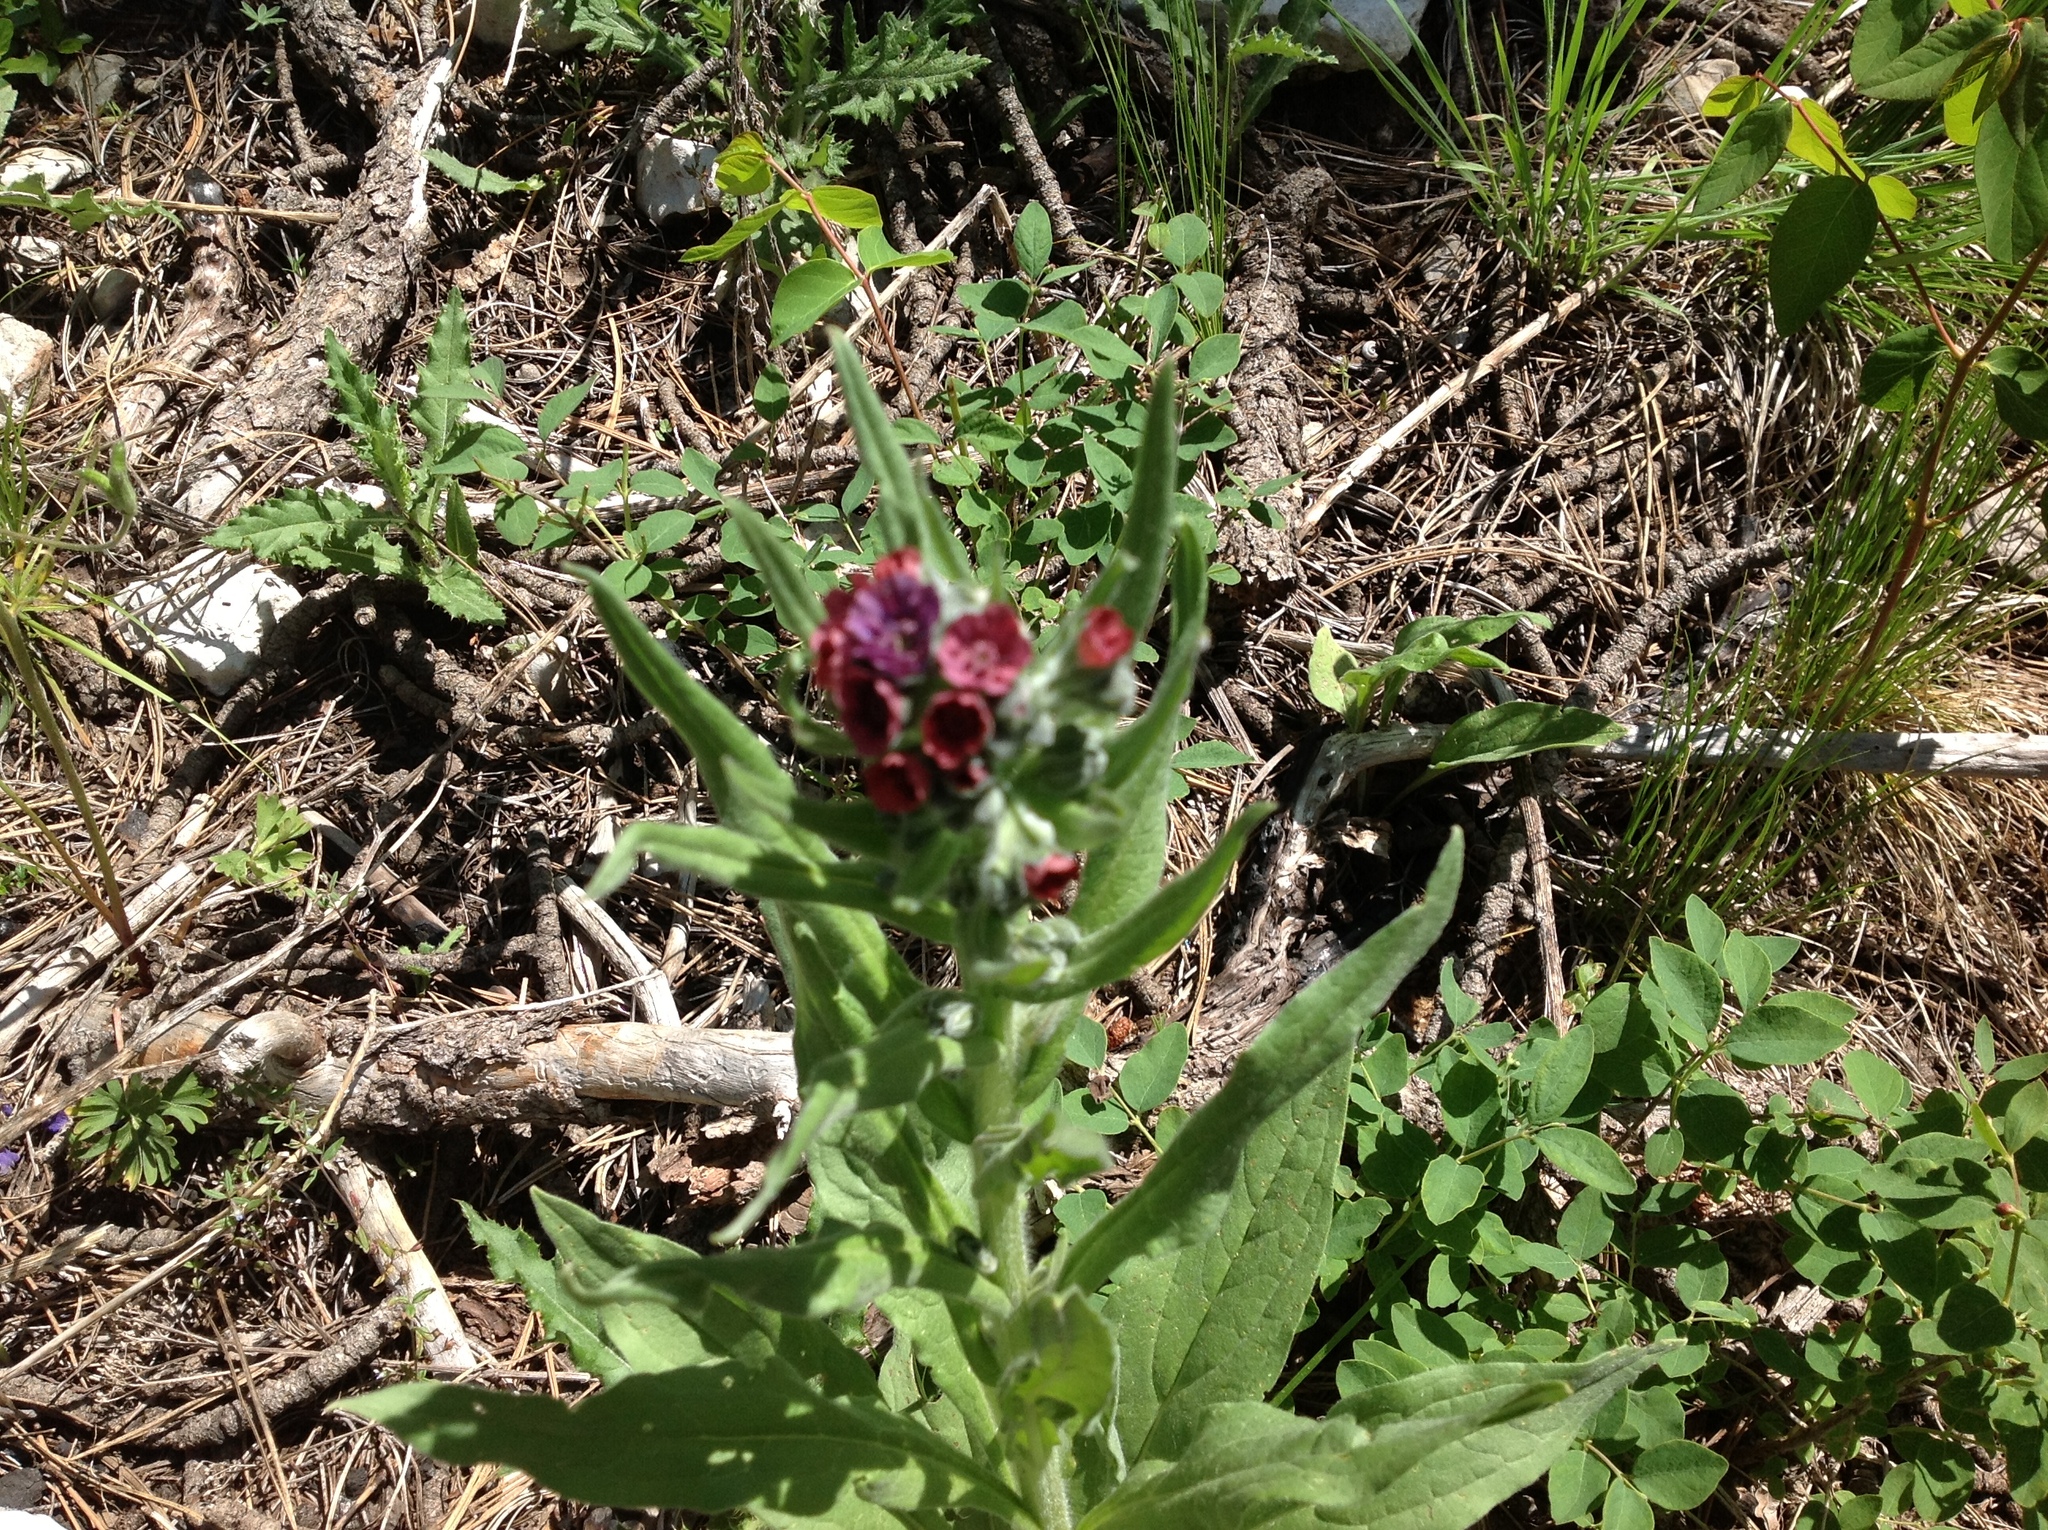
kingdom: Plantae
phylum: Tracheophyta
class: Magnoliopsida
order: Boraginales
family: Boraginaceae
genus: Cynoglossum
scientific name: Cynoglossum officinale
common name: Hound's-tongue
